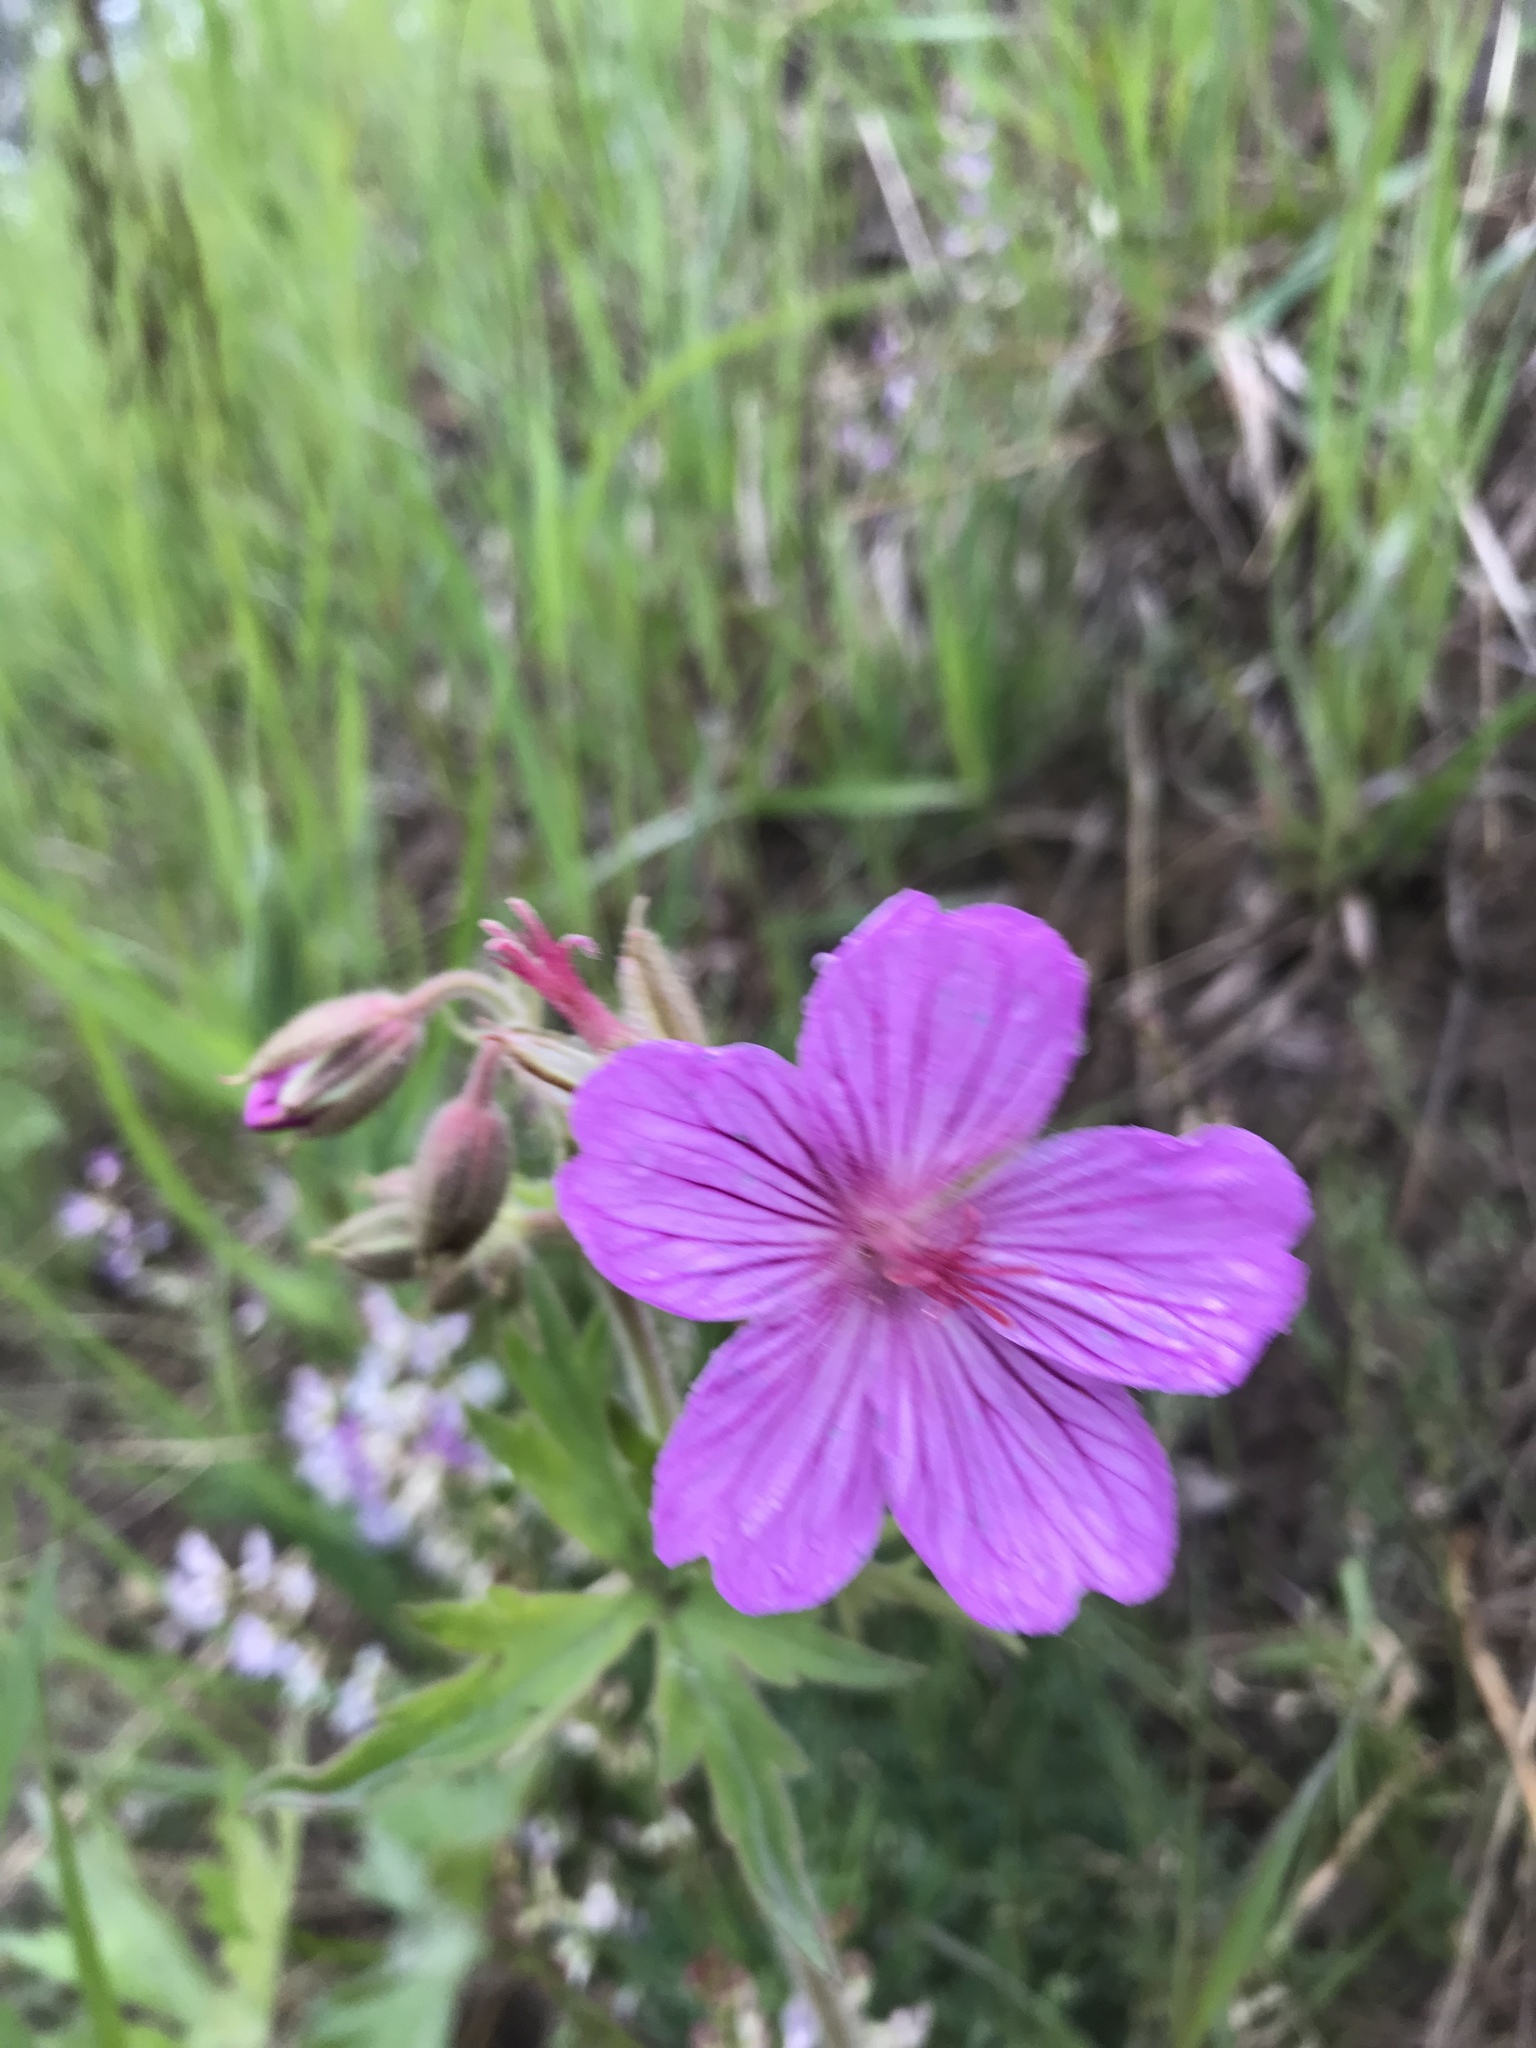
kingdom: Plantae
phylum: Tracheophyta
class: Magnoliopsida
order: Geraniales
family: Geraniaceae
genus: Geranium
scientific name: Geranium viscosissimum
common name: Purple geranium
